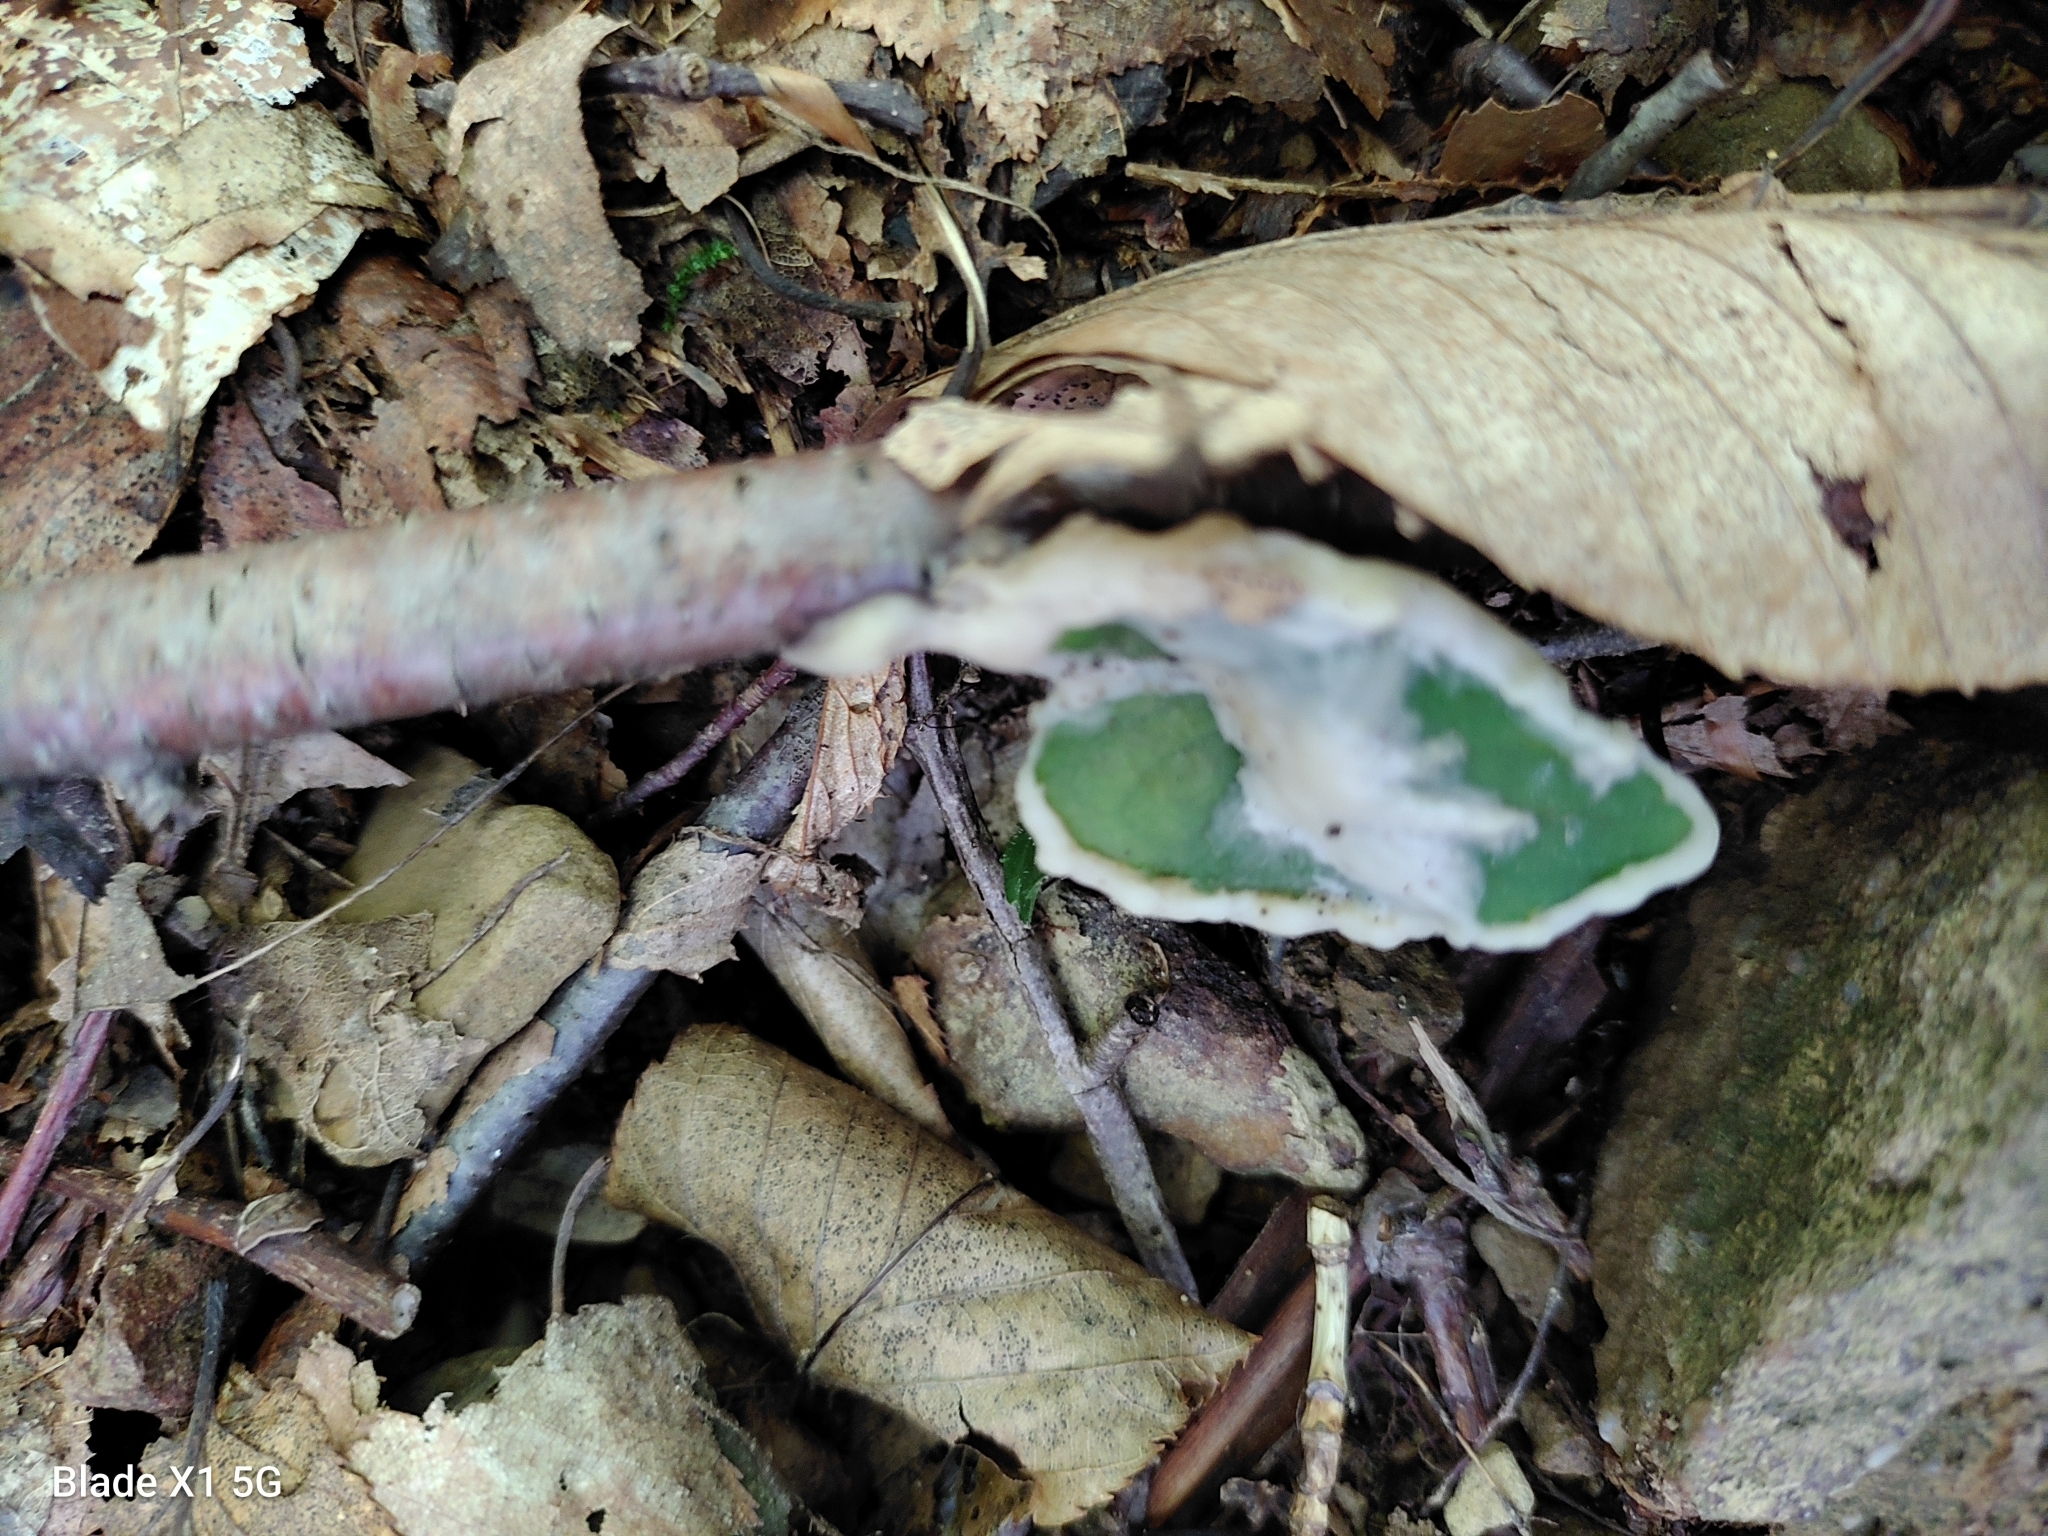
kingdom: Fungi
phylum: Basidiomycota
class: Agaricomycetes
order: Sebacinales
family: Sebacinaceae
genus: Sebacina
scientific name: Sebacina incrustans
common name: Enveloping crust
